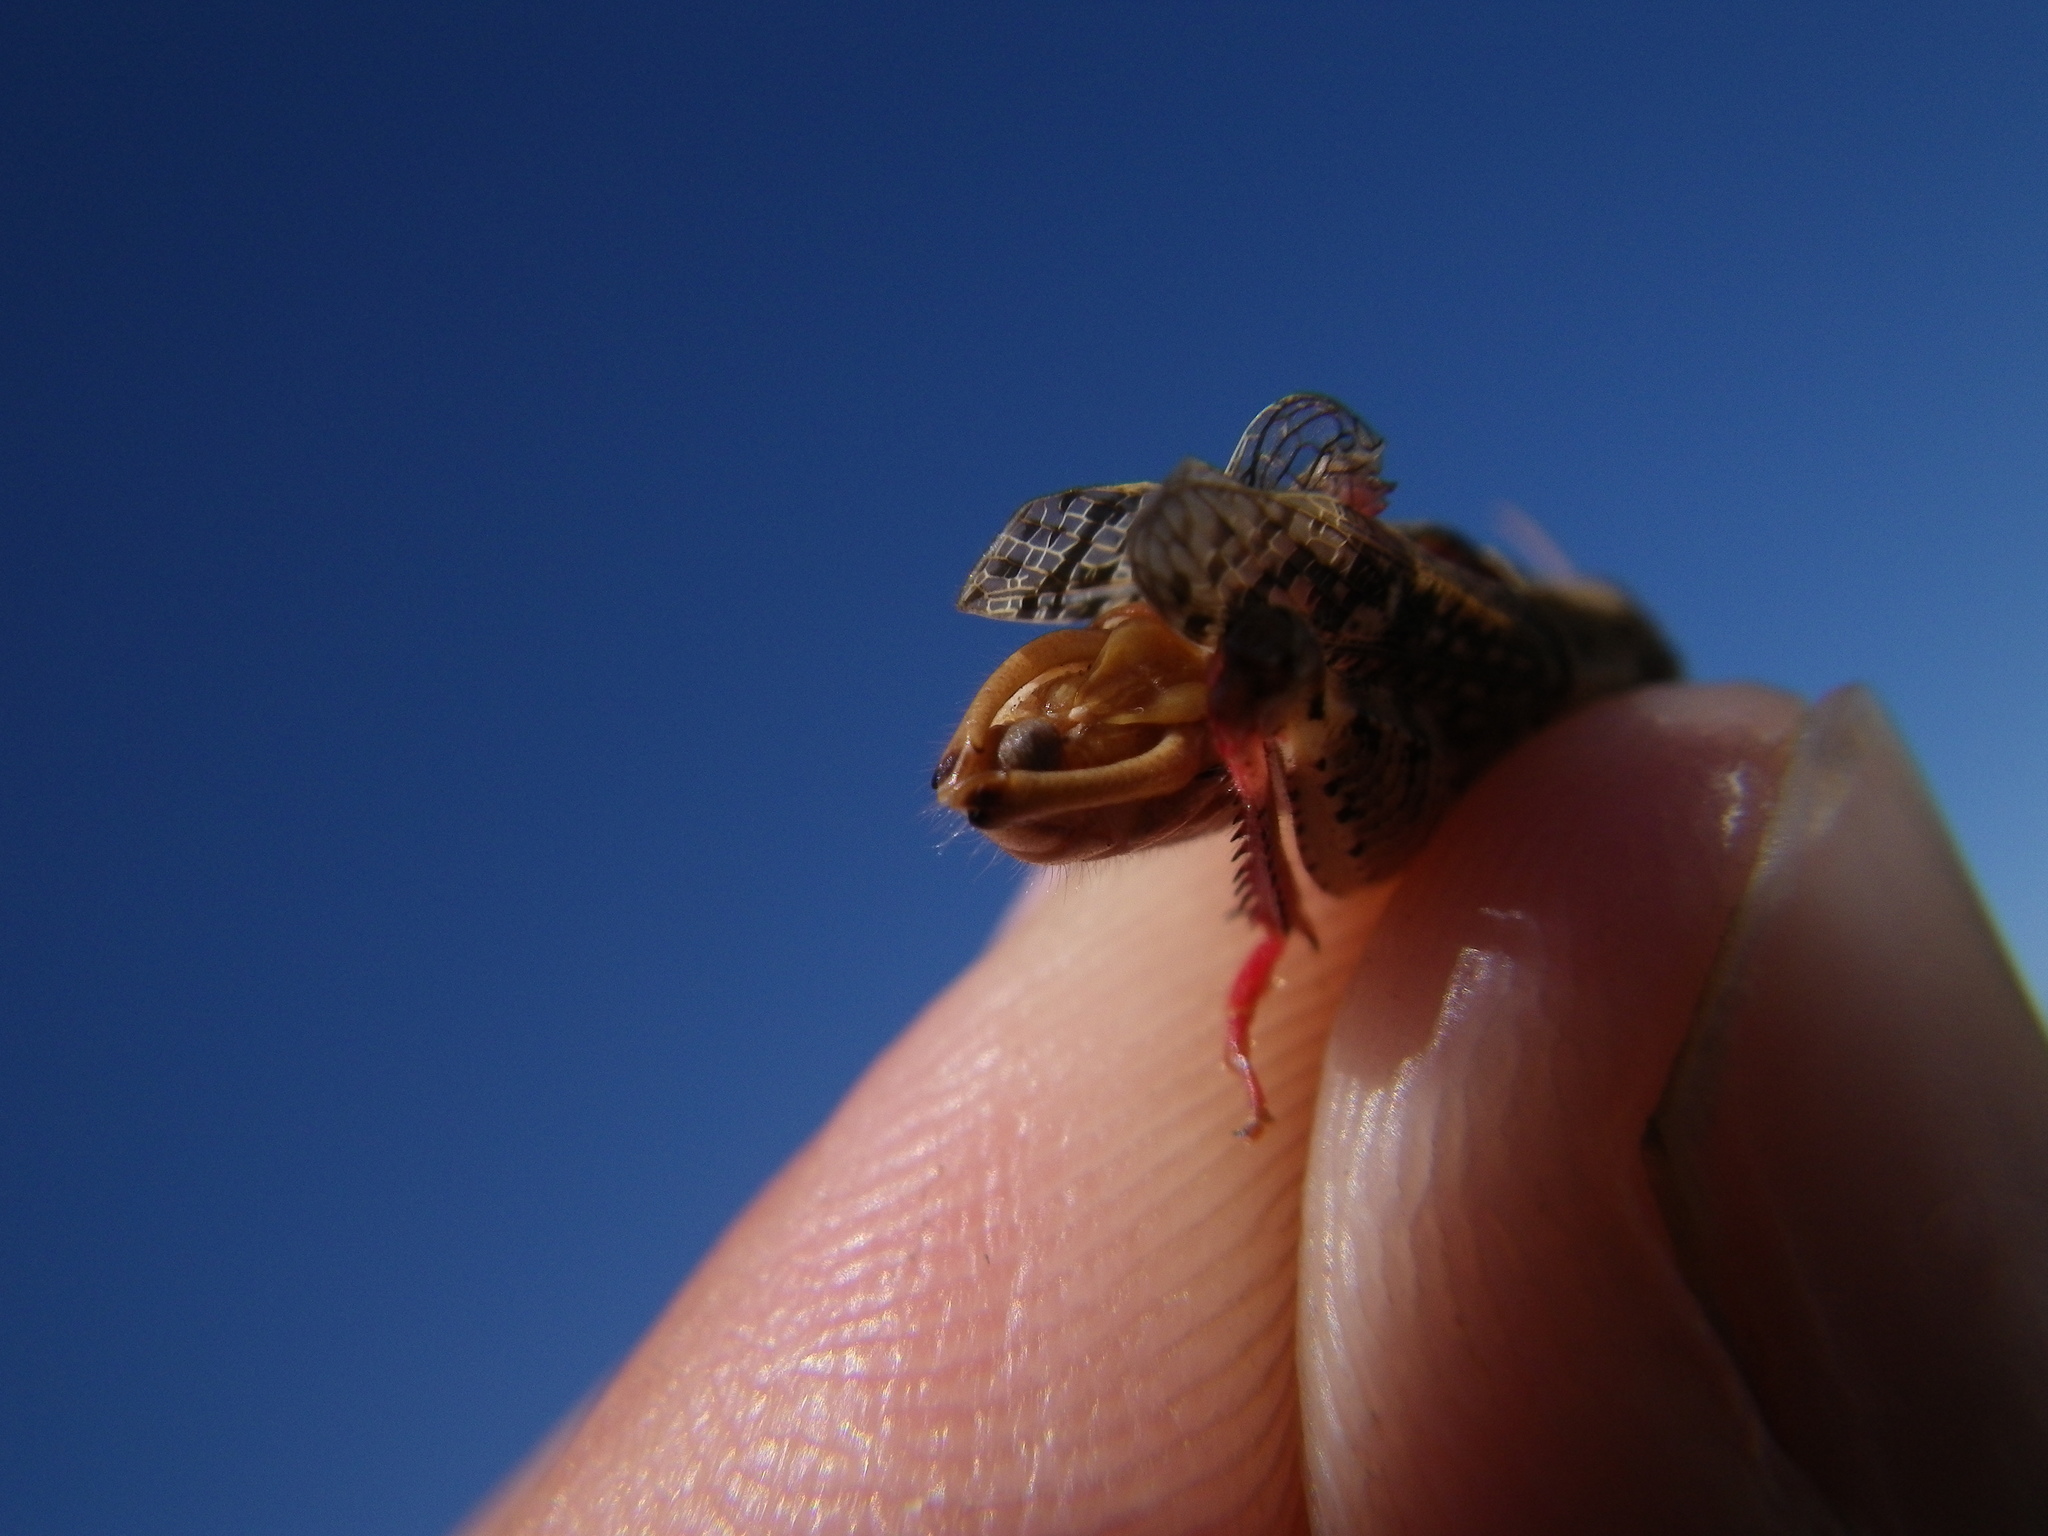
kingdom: Animalia
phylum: Arthropoda
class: Insecta
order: Orthoptera
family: Acrididae
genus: Calliptamus
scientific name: Calliptamus barbarus
